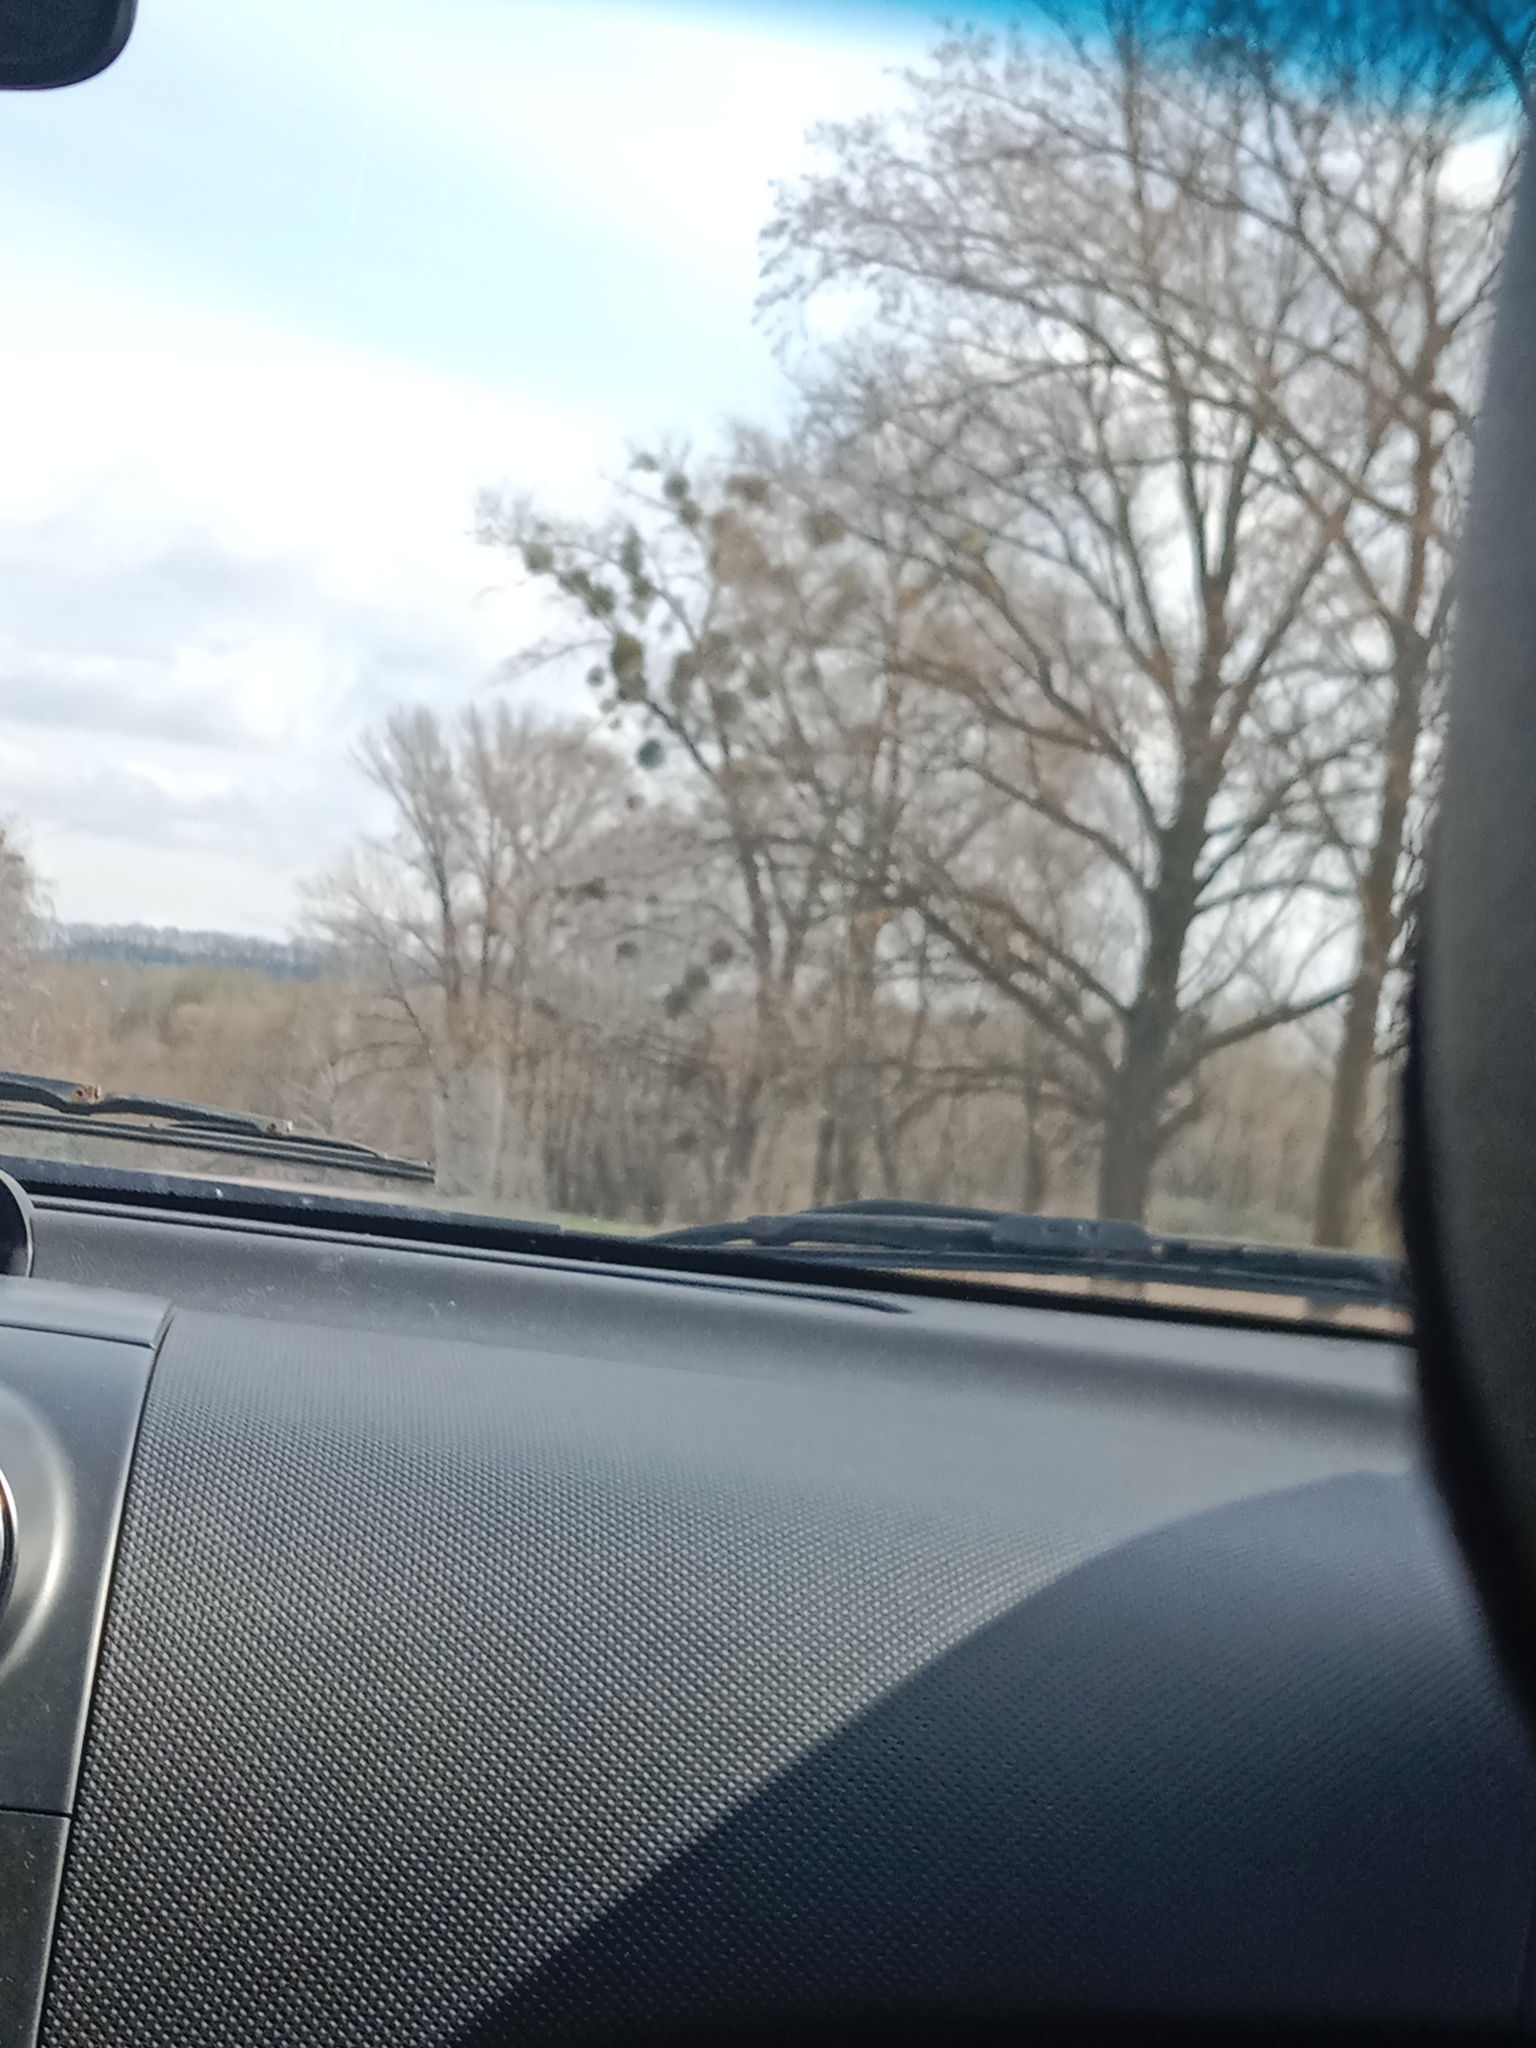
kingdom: Plantae
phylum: Tracheophyta
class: Magnoliopsida
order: Santalales
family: Viscaceae
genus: Viscum
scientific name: Viscum album
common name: Mistletoe
